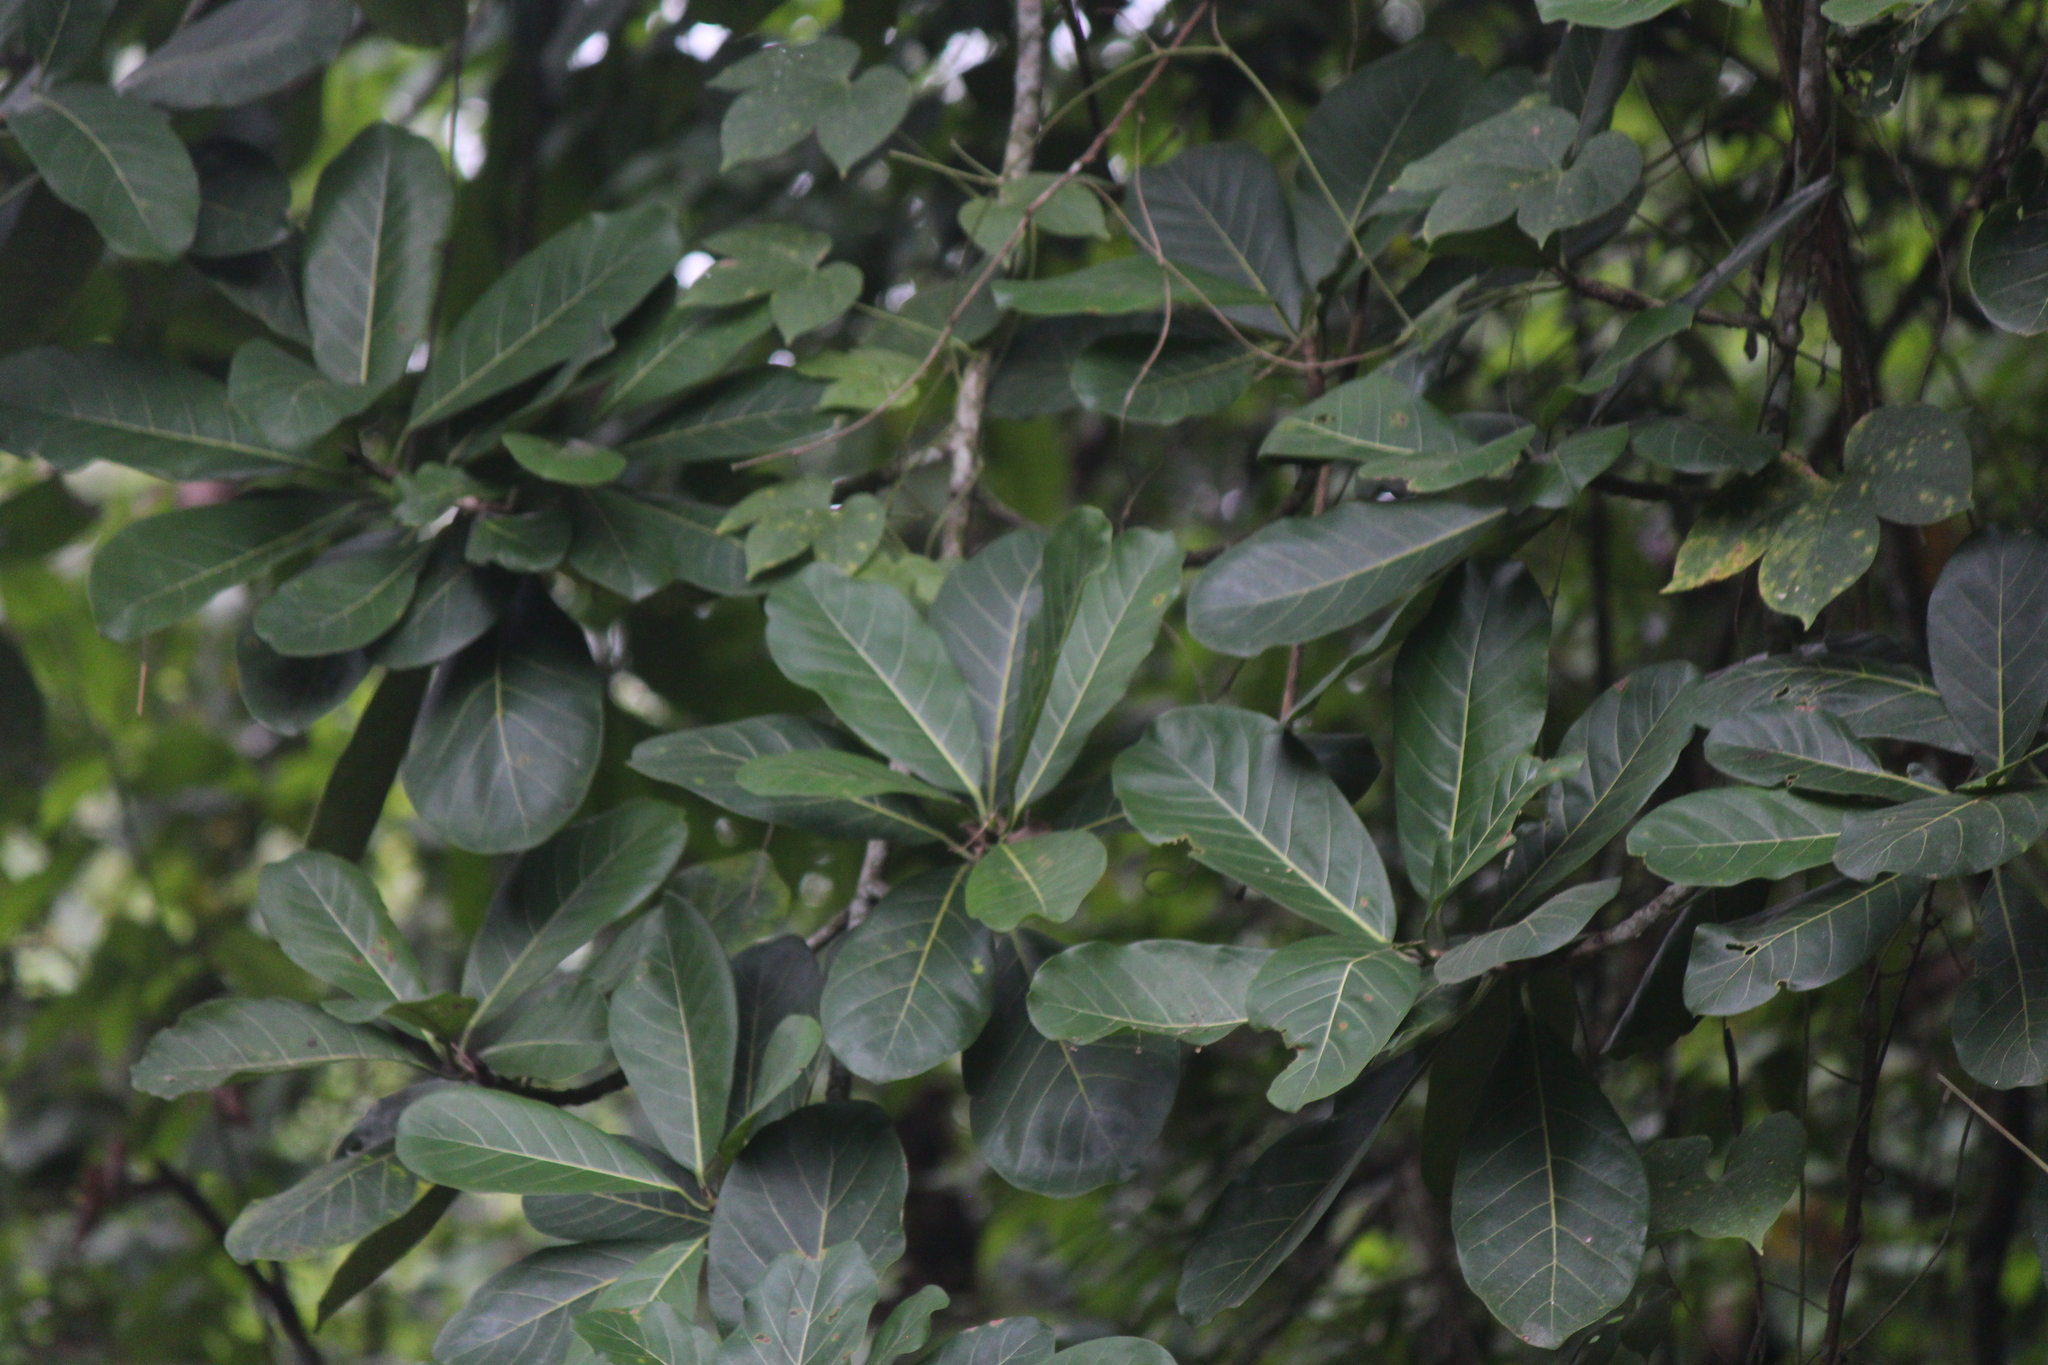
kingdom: Plantae
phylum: Tracheophyta
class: Magnoliopsida
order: Rosales
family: Moraceae
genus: Ficus
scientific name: Ficus obtusifolia
